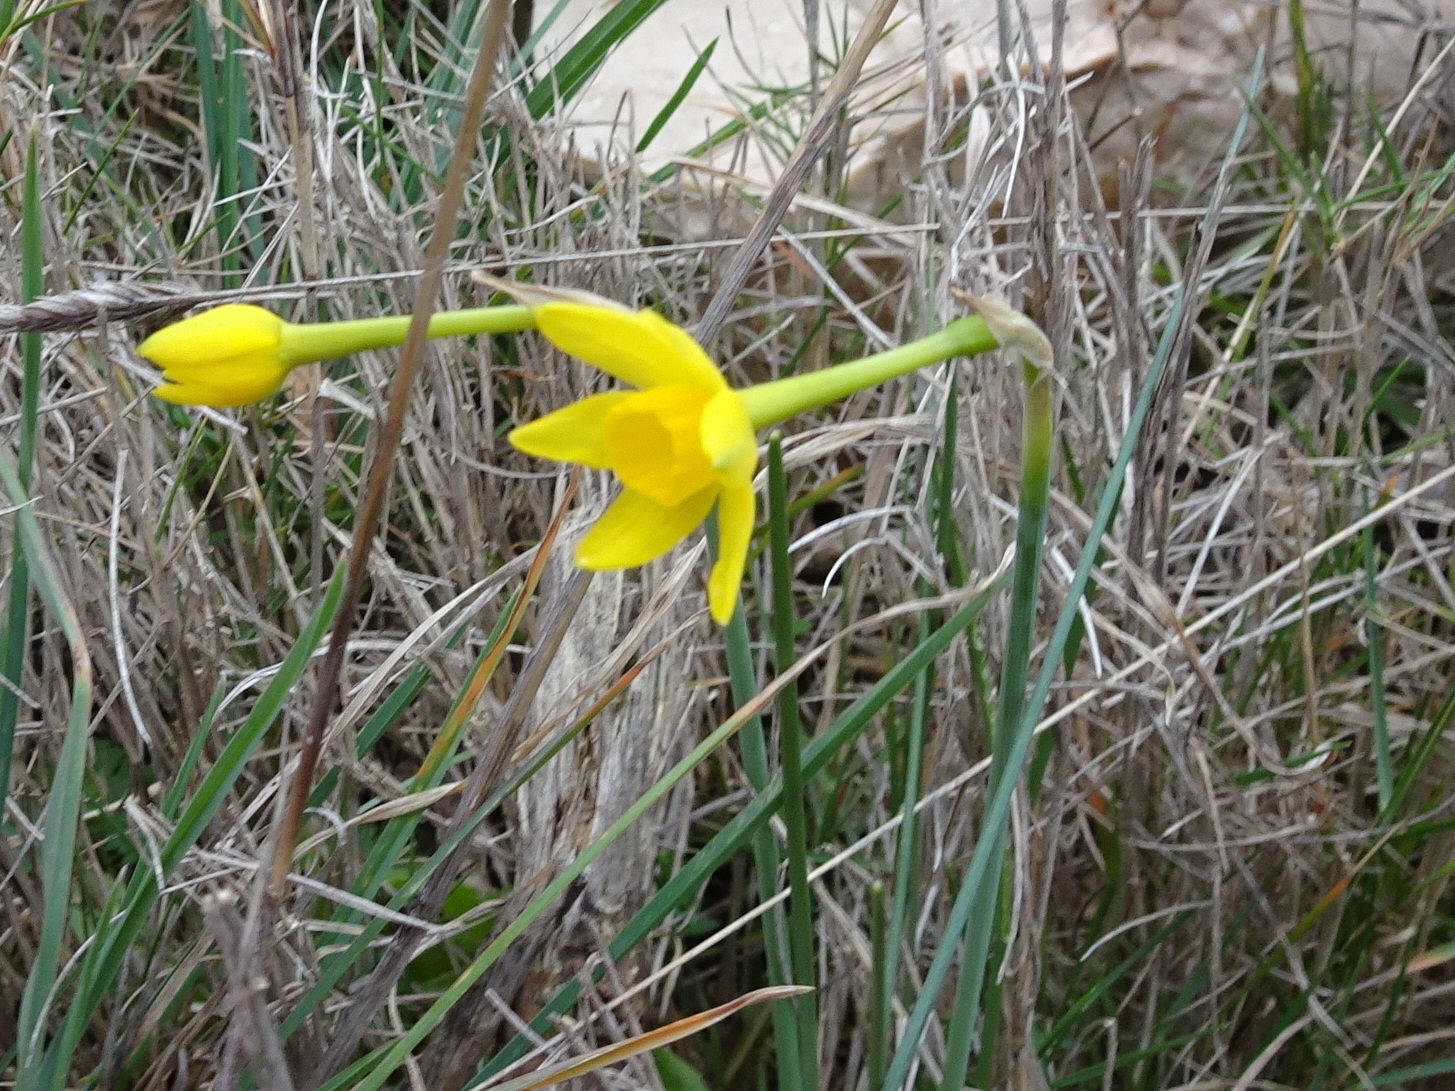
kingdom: Plantae
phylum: Tracheophyta
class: Liliopsida
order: Asparagales
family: Amaryllidaceae
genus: Narcissus
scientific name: Narcissus assoanus
